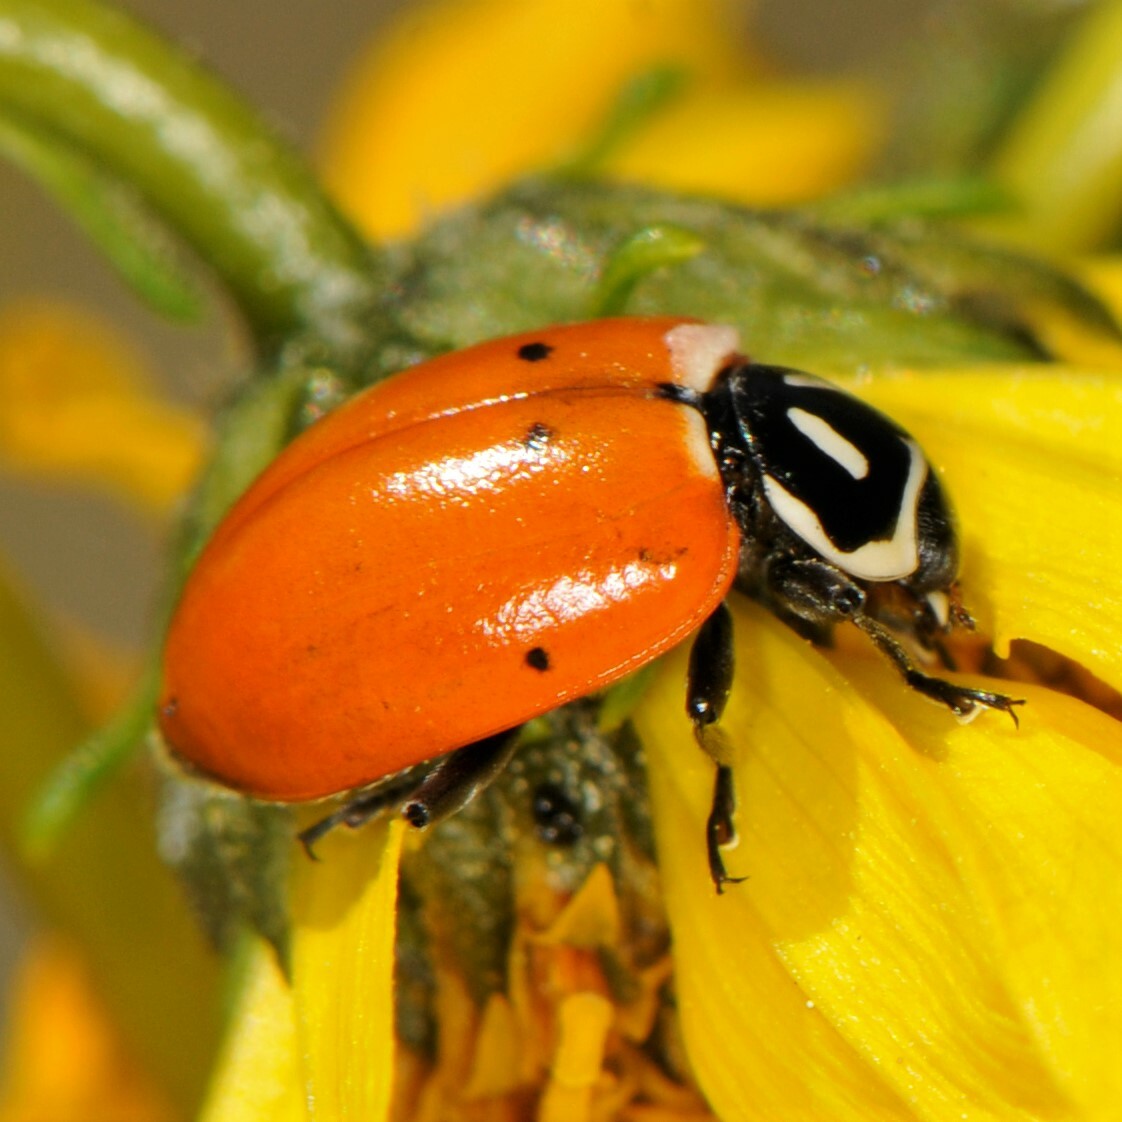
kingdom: Animalia
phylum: Arthropoda
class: Insecta
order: Coleoptera
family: Coccinellidae
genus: Hippodamia
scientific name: Hippodamia convergens
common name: Convergent lady beetle
